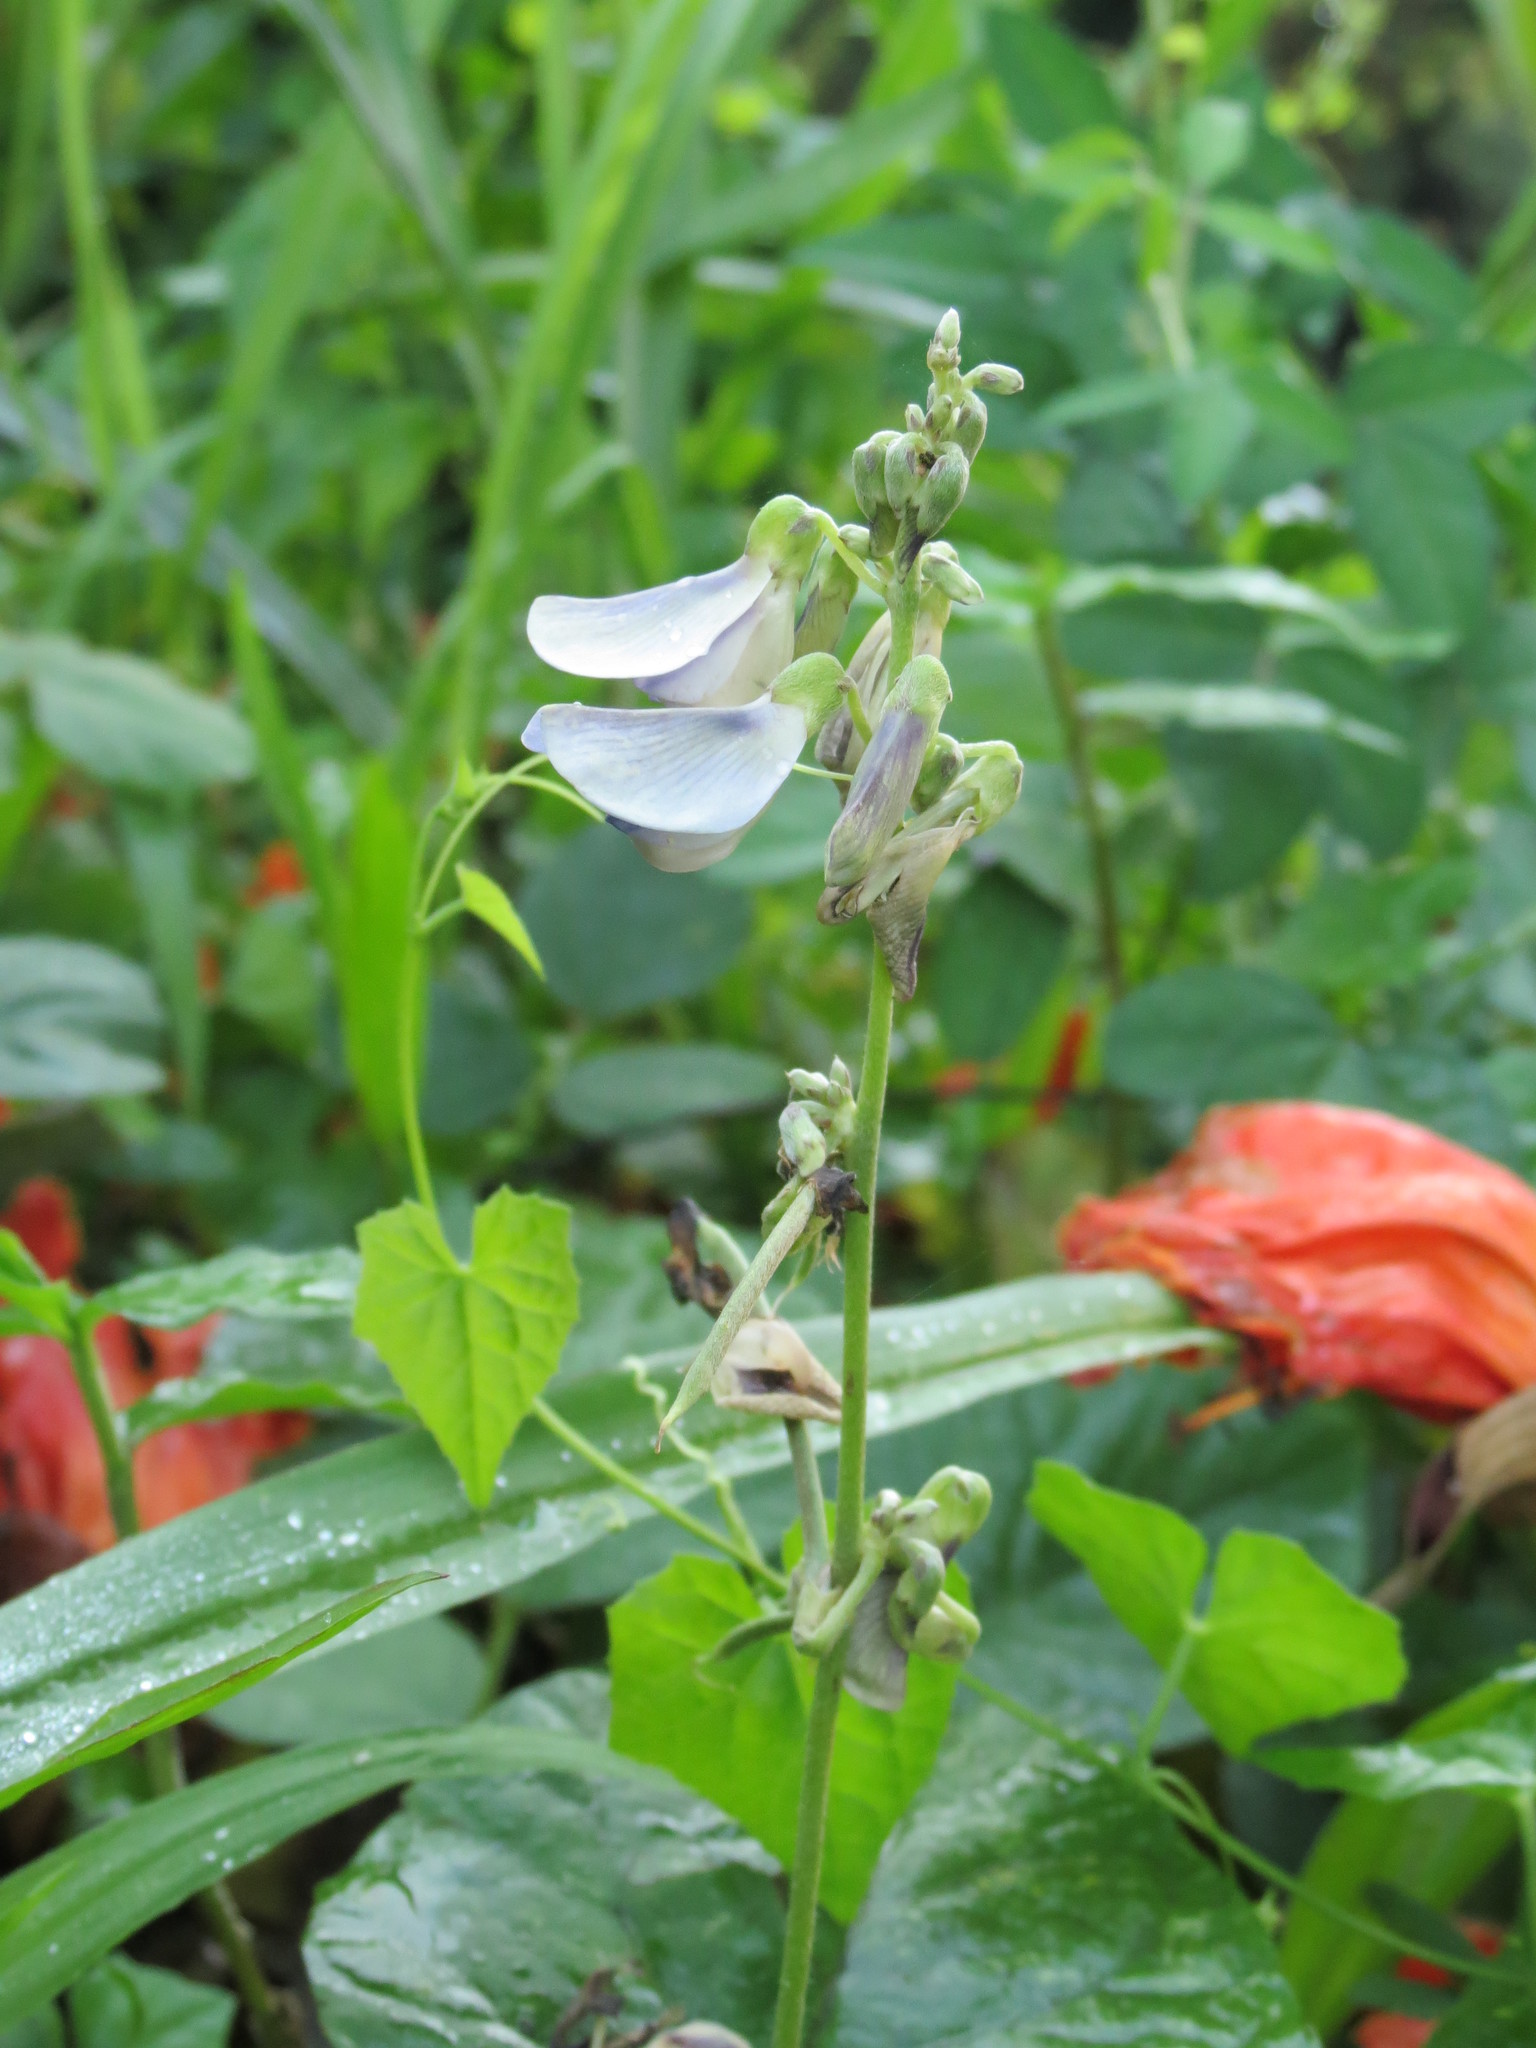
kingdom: Plantae
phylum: Tracheophyta
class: Magnoliopsida
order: Fabales
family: Fabaceae
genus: Neustanthus
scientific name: Neustanthus phaseoloides
